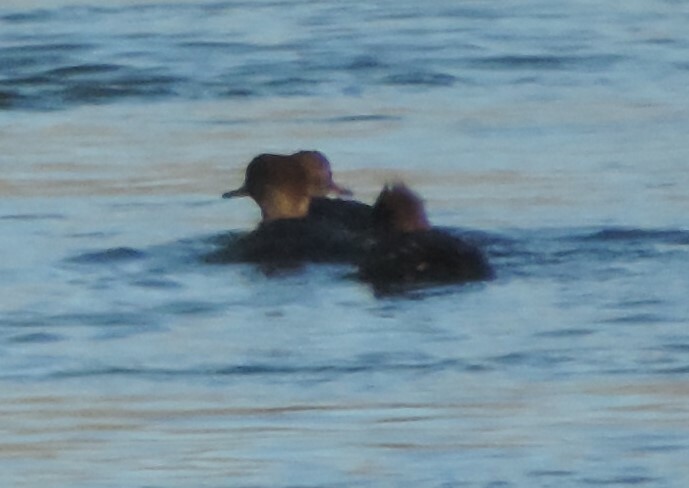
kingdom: Animalia
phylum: Chordata
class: Aves
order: Anseriformes
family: Anatidae
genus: Lophodytes
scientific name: Lophodytes cucullatus
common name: Hooded merganser
